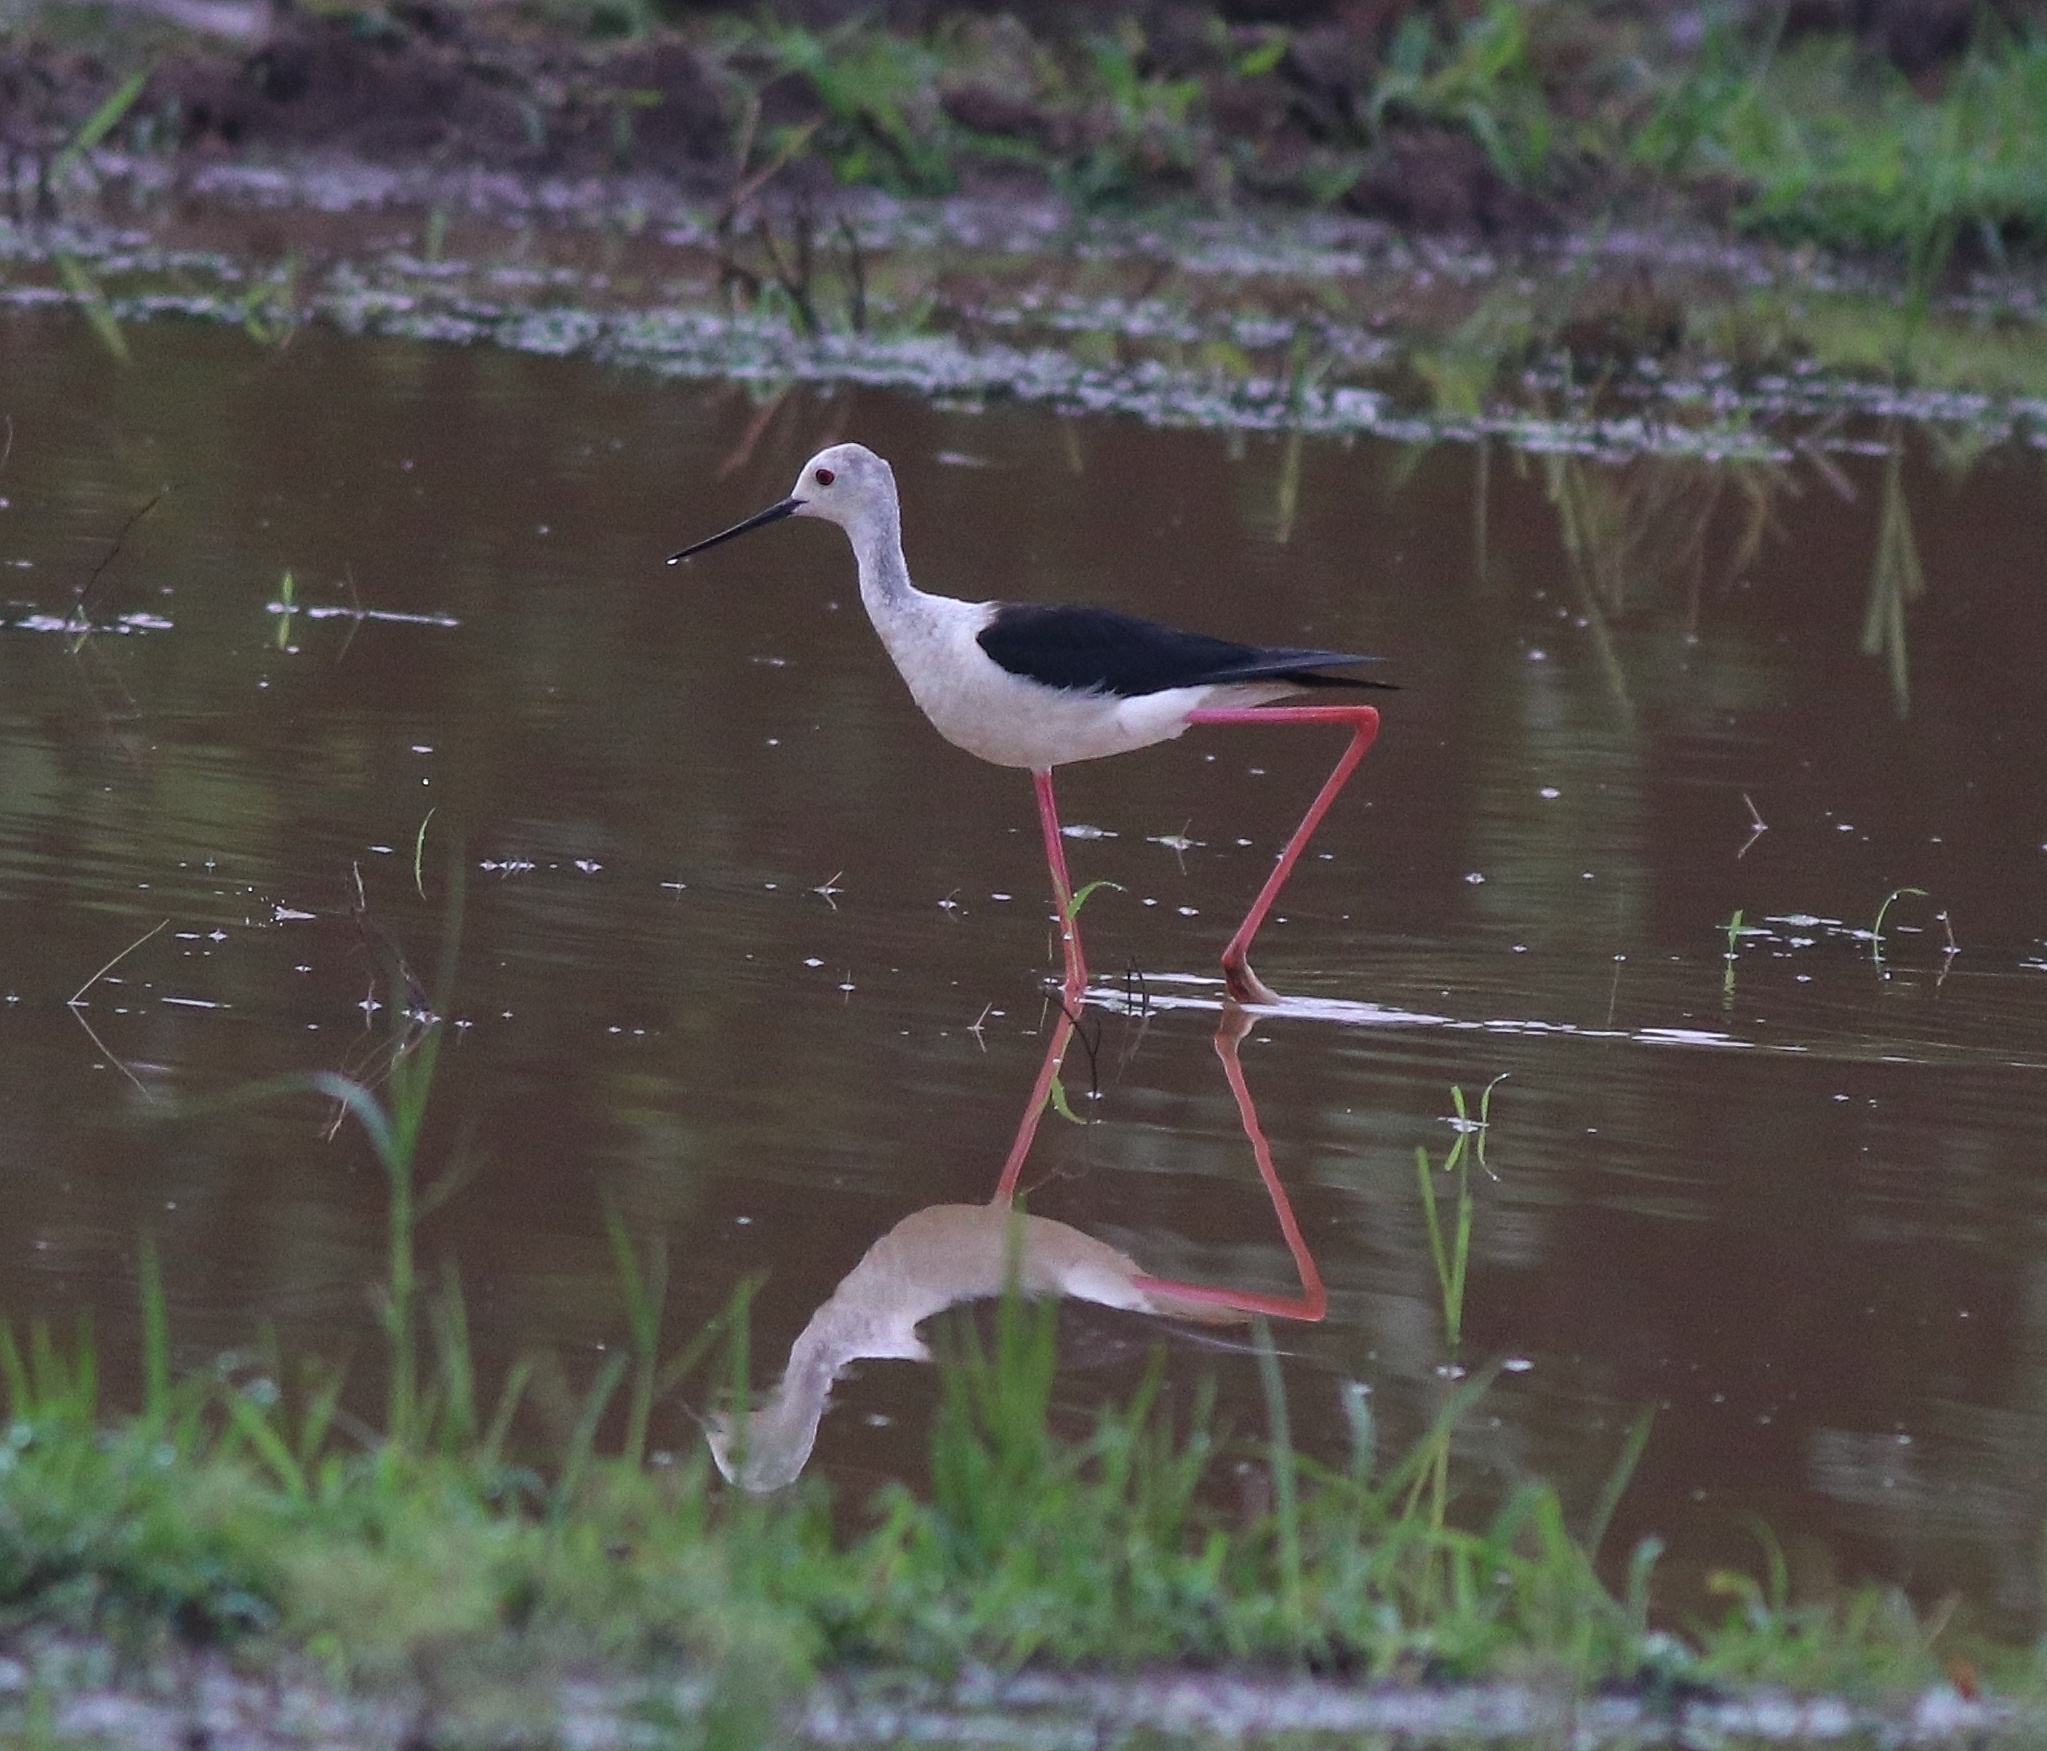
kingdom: Animalia
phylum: Chordata
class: Aves
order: Charadriiformes
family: Recurvirostridae
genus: Himantopus
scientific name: Himantopus himantopus
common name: Black-winged stilt
